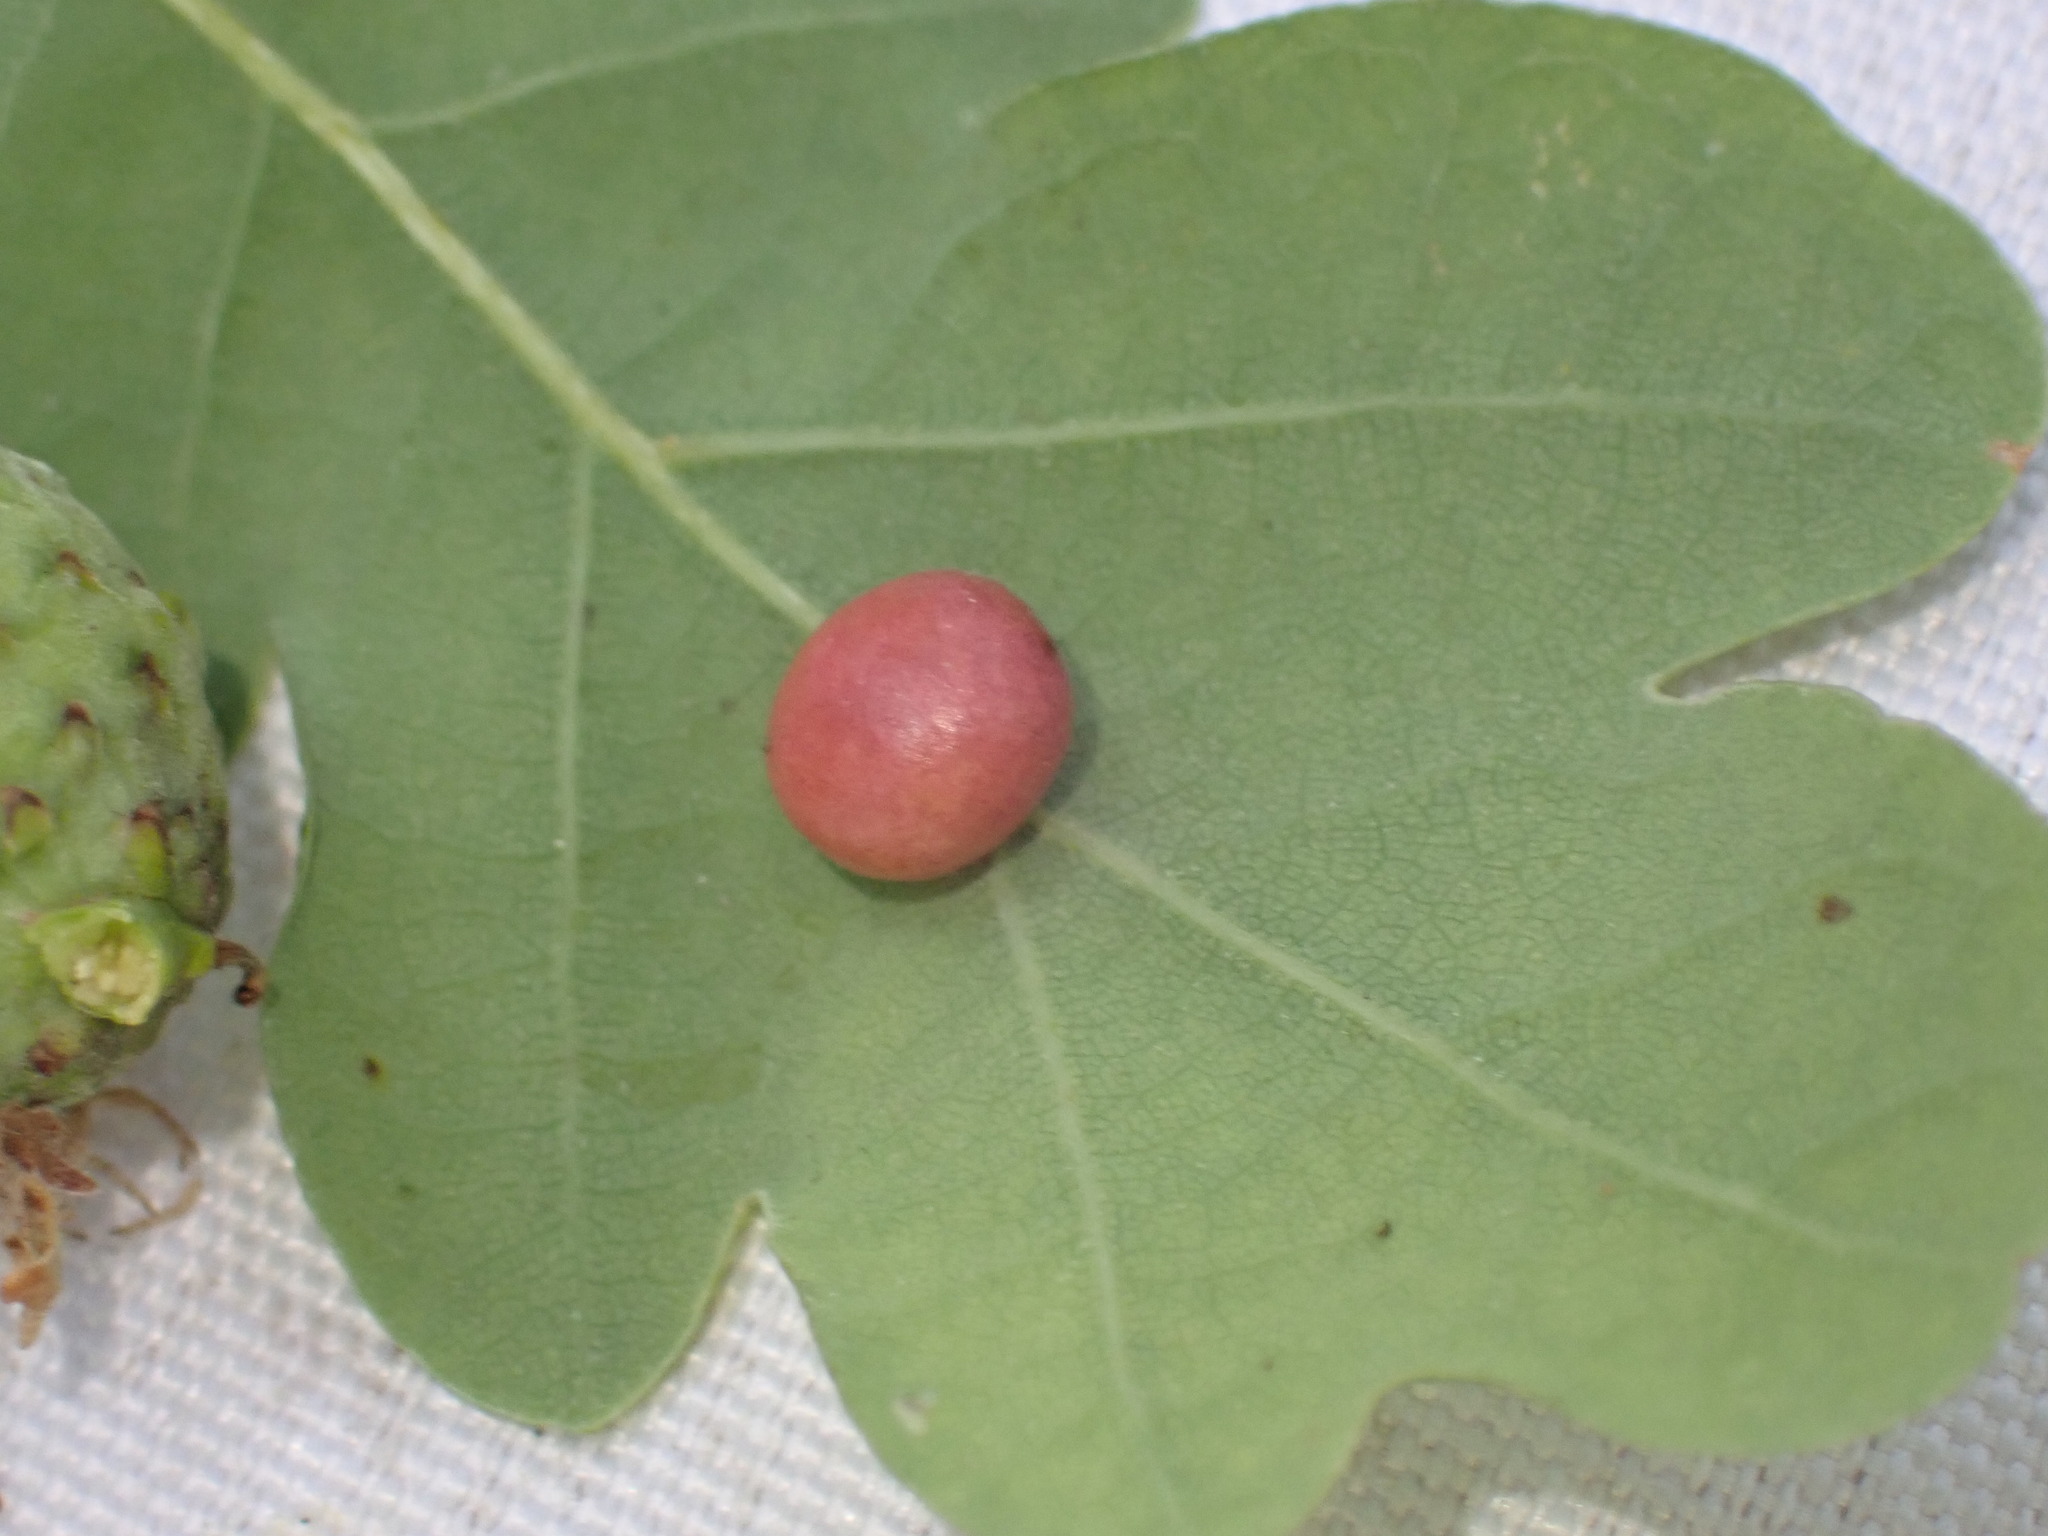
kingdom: Animalia
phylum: Arthropoda
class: Insecta
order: Hymenoptera
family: Cynipidae
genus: Cynips
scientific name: Cynips divisa
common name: Red currant gall
